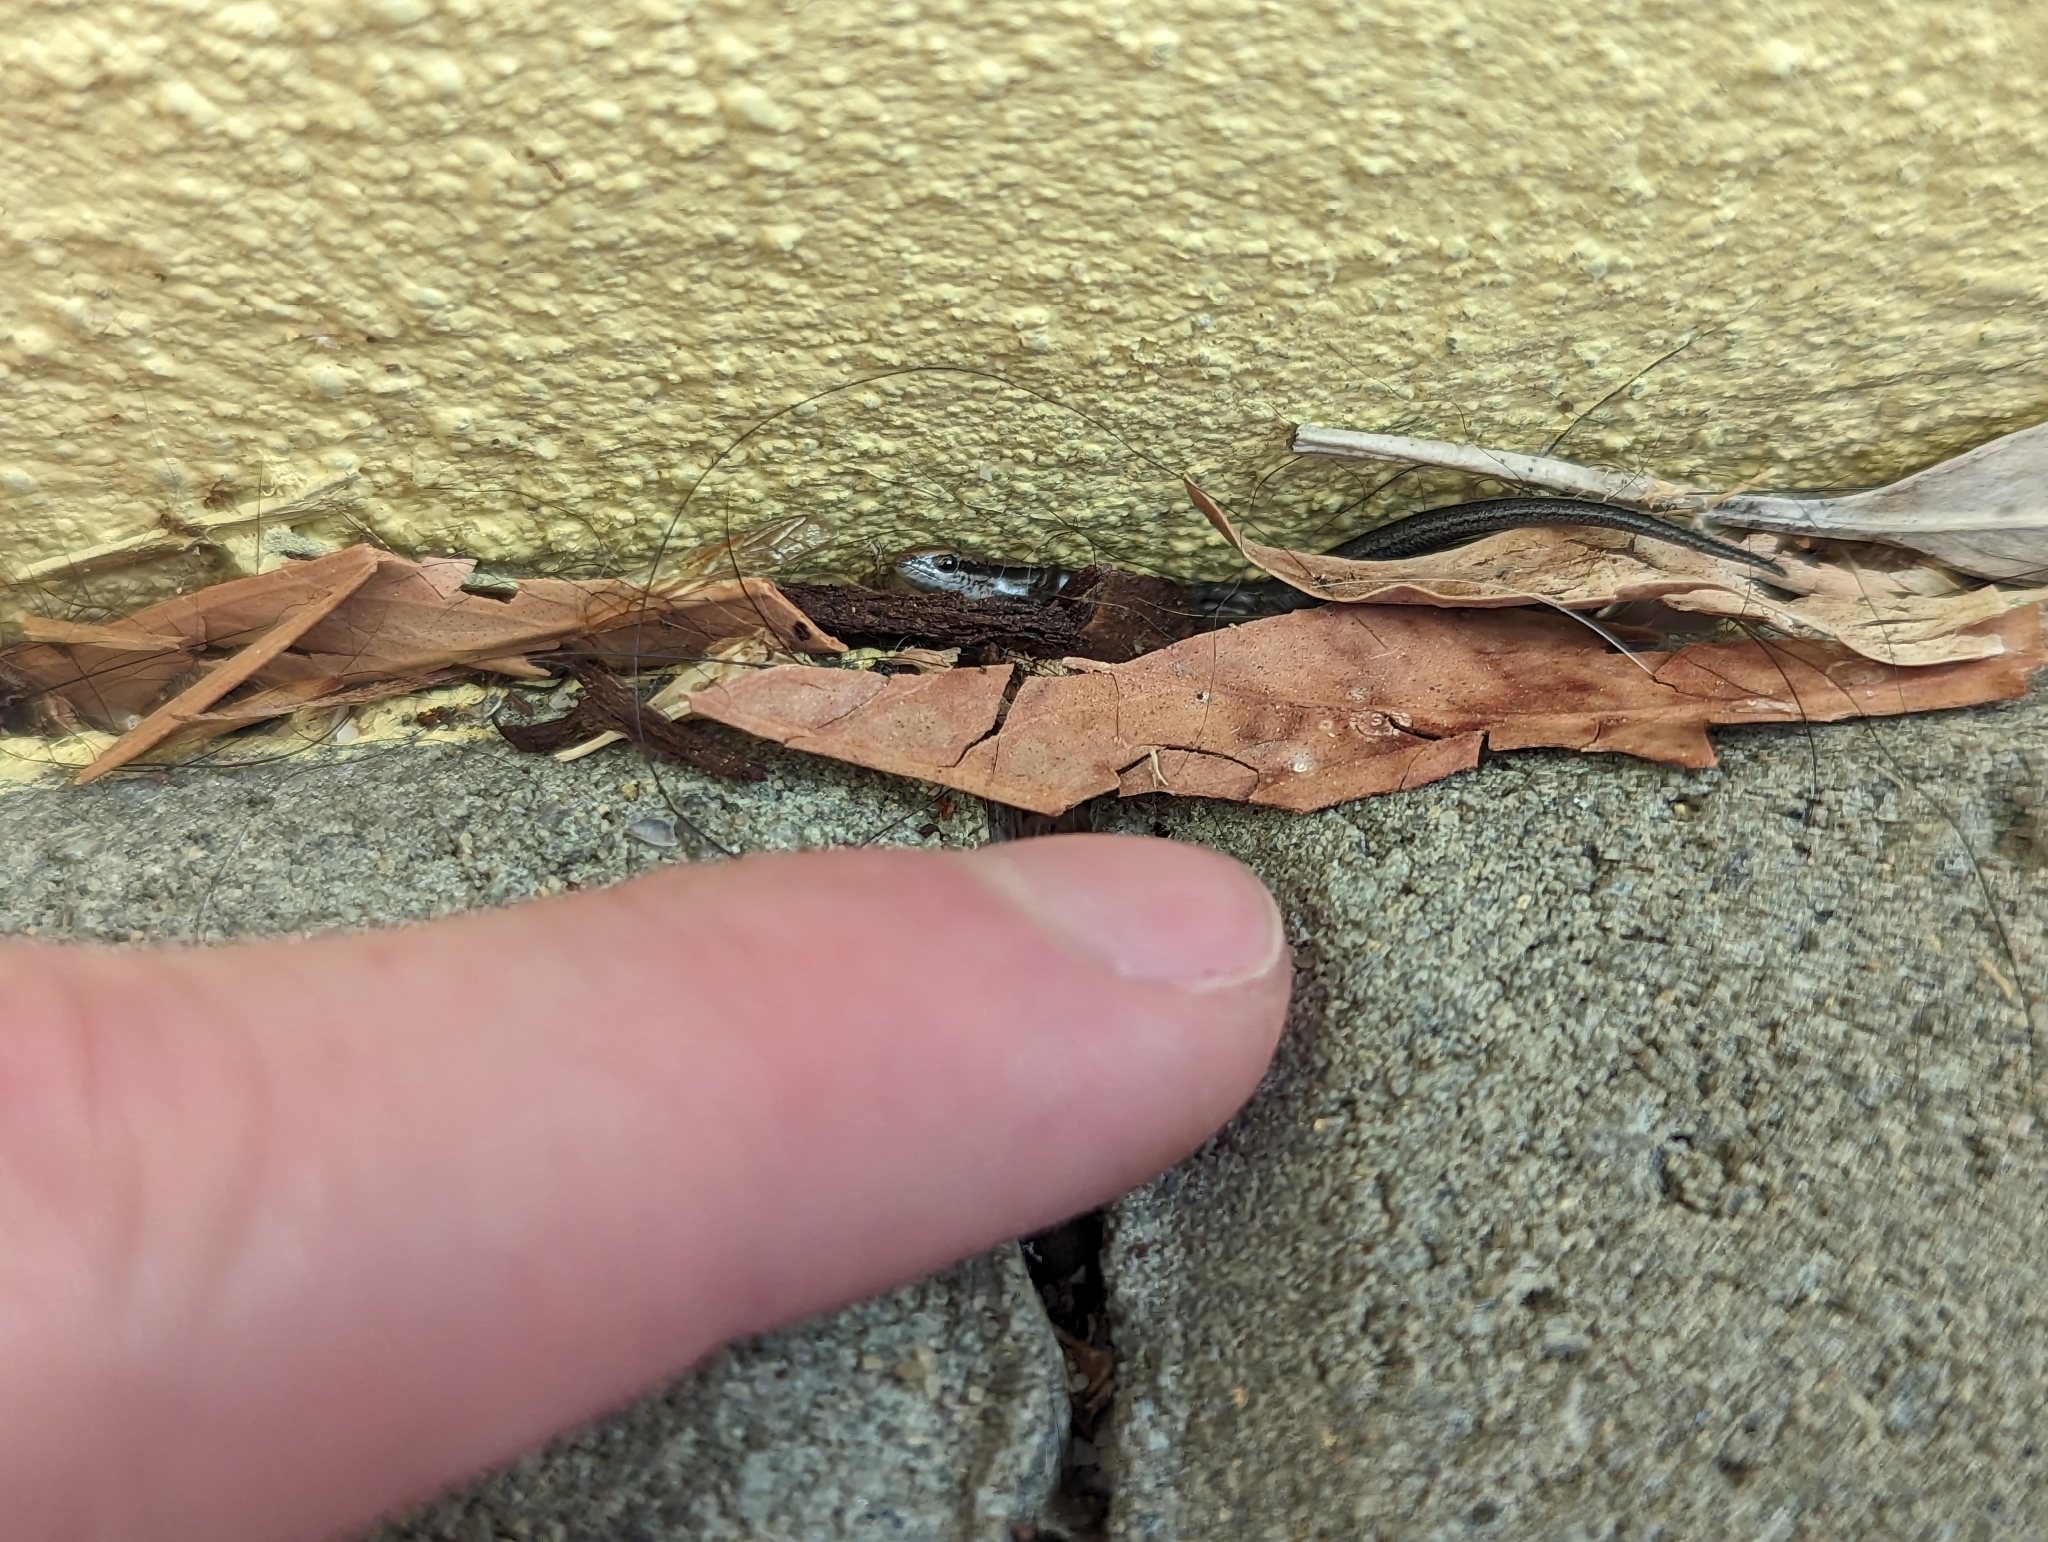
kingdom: Animalia
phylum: Chordata
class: Squamata
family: Scincidae
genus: Menetia
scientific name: Menetia greyii
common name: Common dwarf skink
